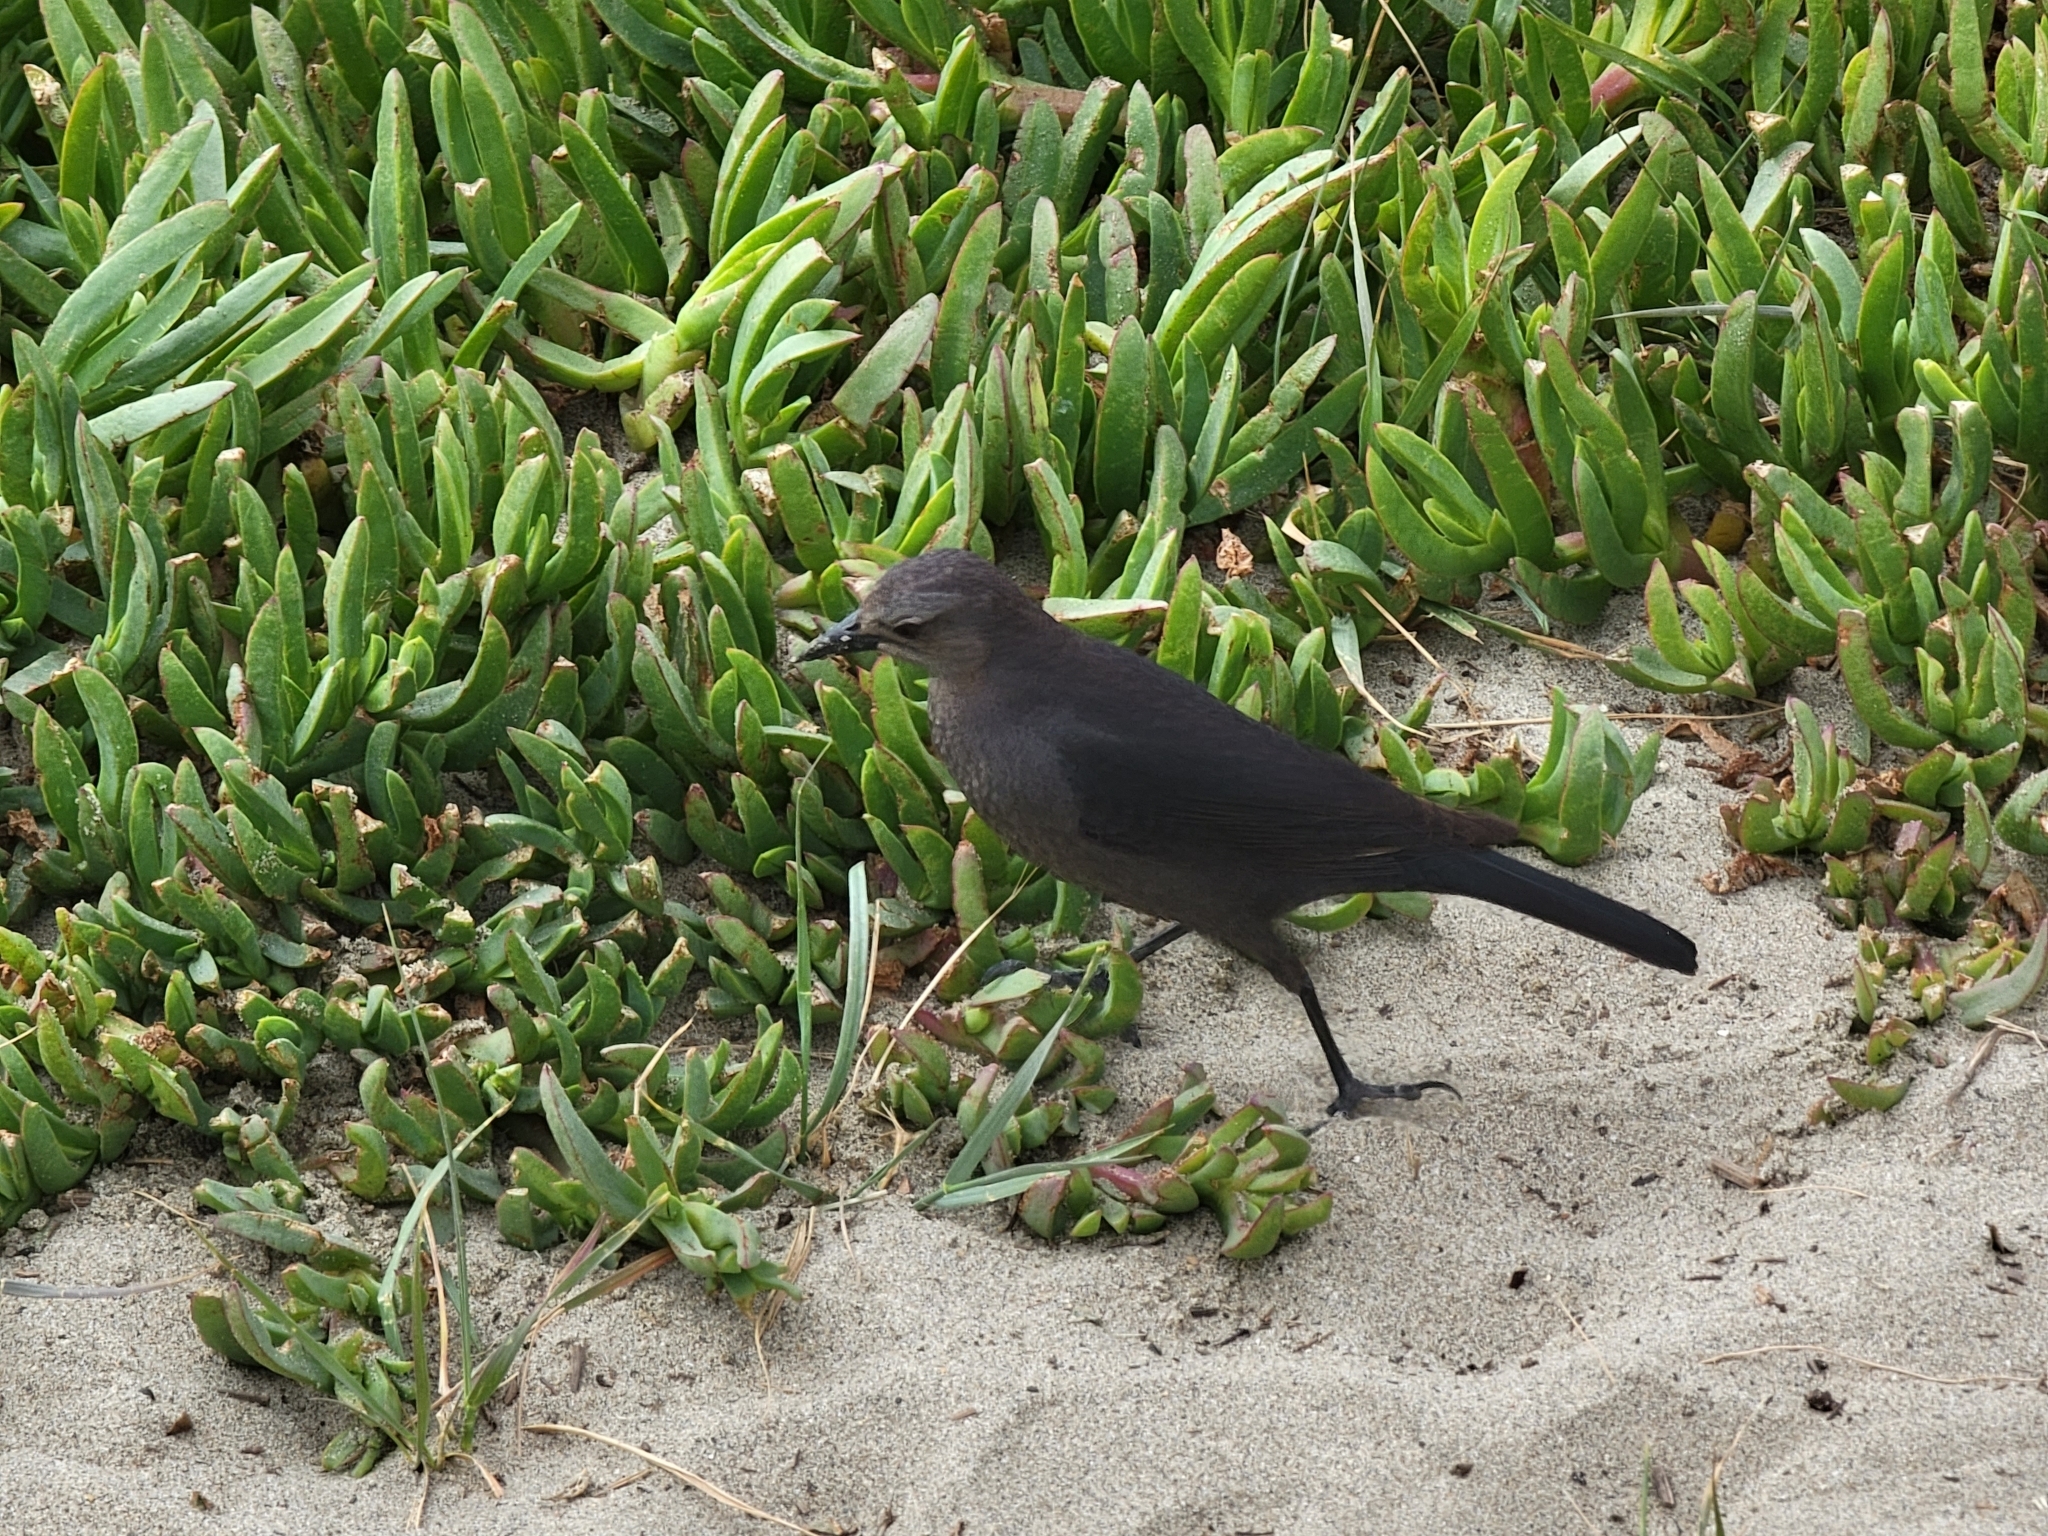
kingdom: Animalia
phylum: Chordata
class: Aves
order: Passeriformes
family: Icteridae
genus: Euphagus
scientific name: Euphagus cyanocephalus
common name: Brewer's blackbird
